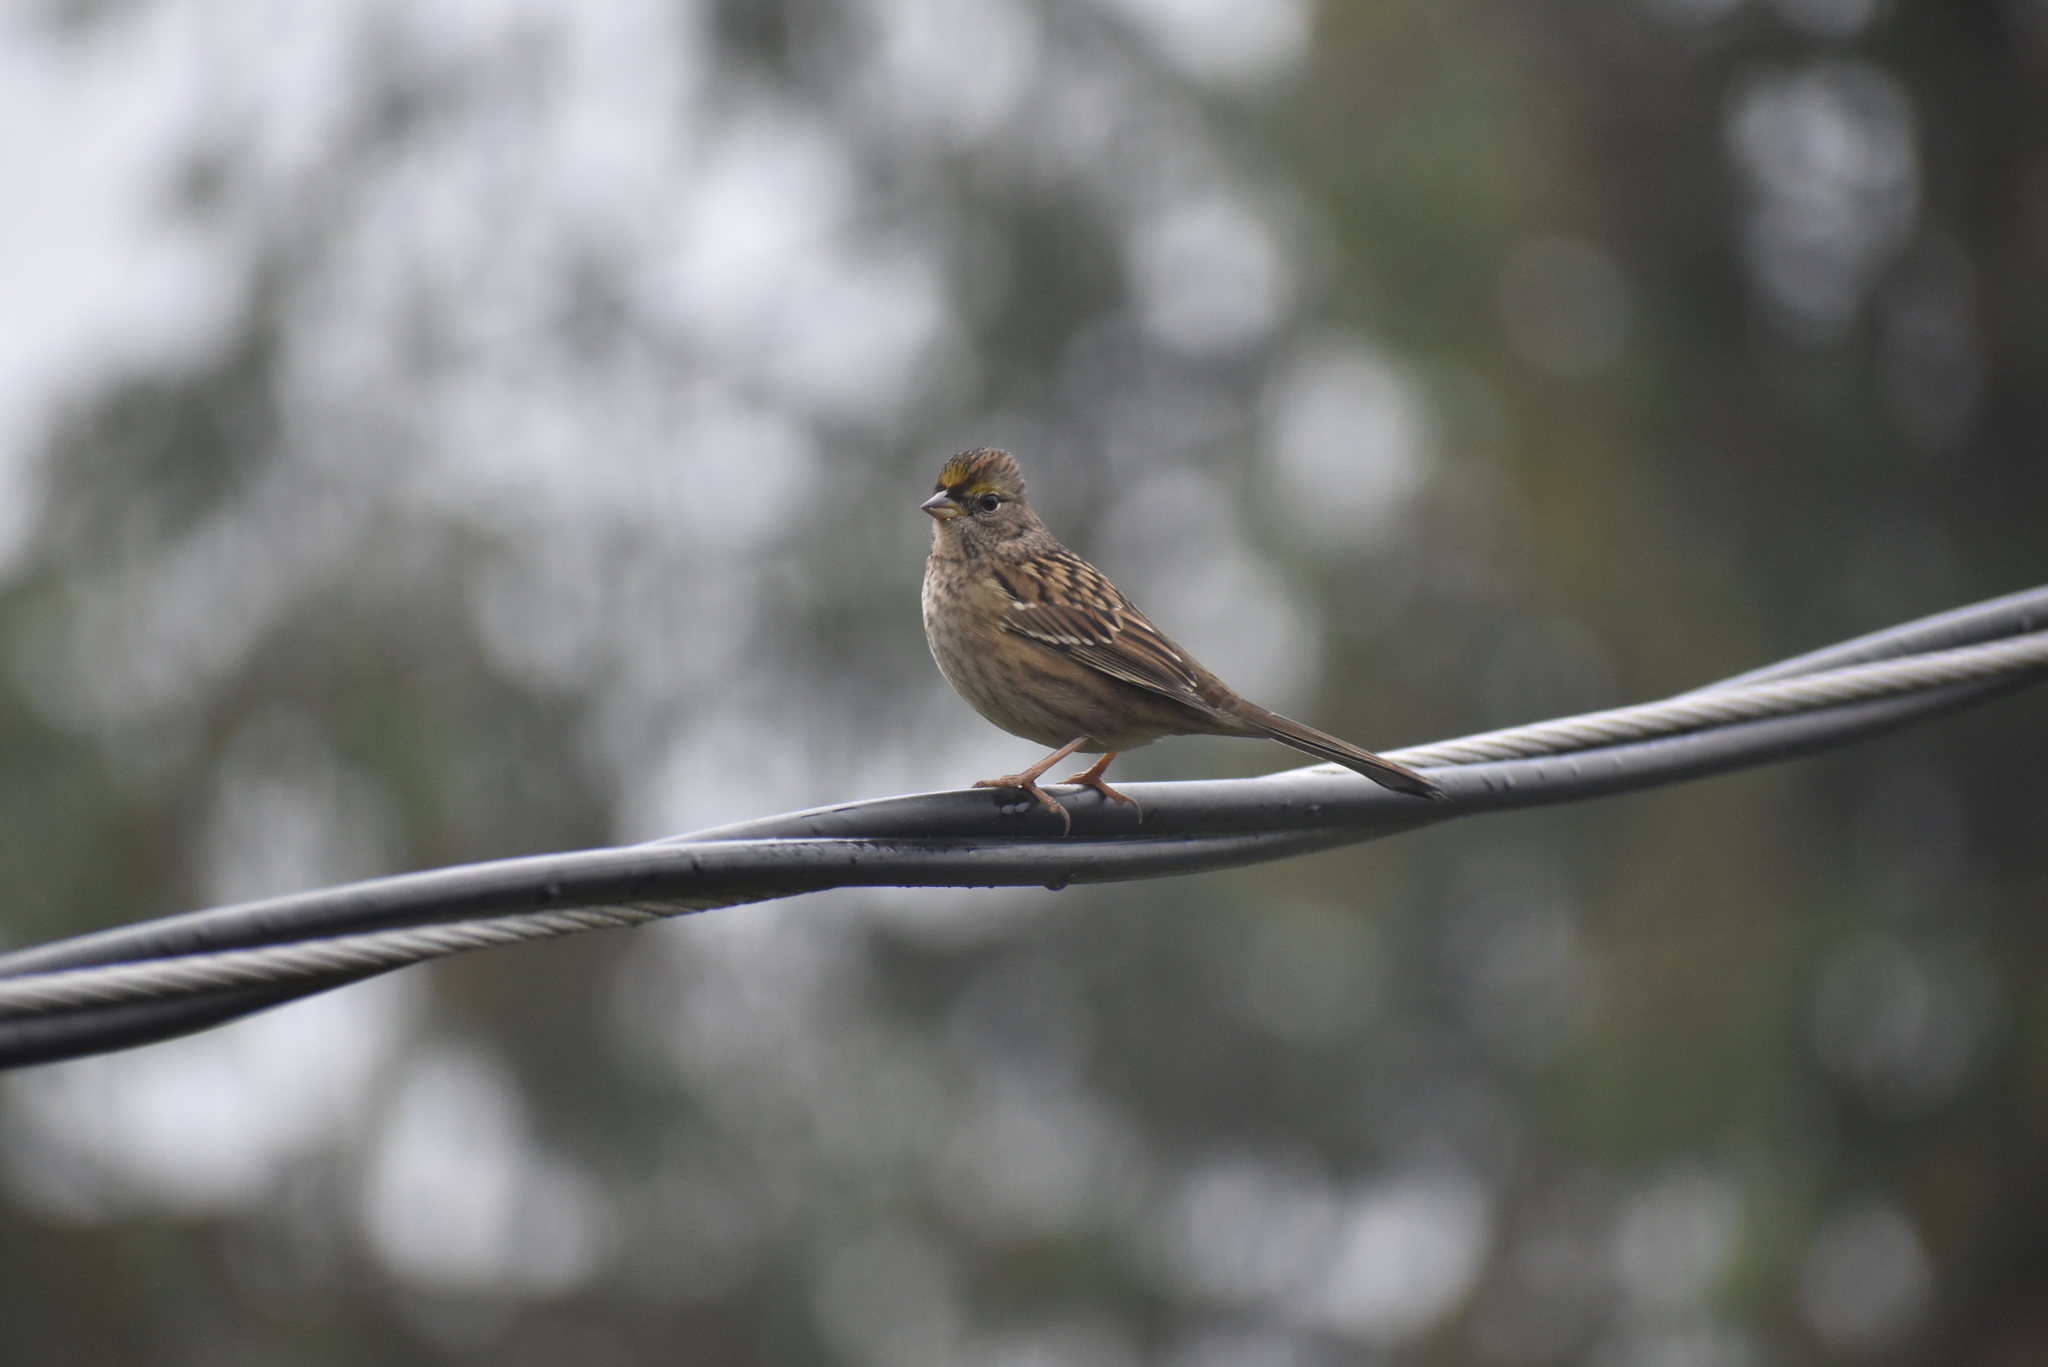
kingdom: Animalia
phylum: Chordata
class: Aves
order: Passeriformes
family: Passerellidae
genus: Zonotrichia
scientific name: Zonotrichia atricapilla
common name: Golden-crowned sparrow
